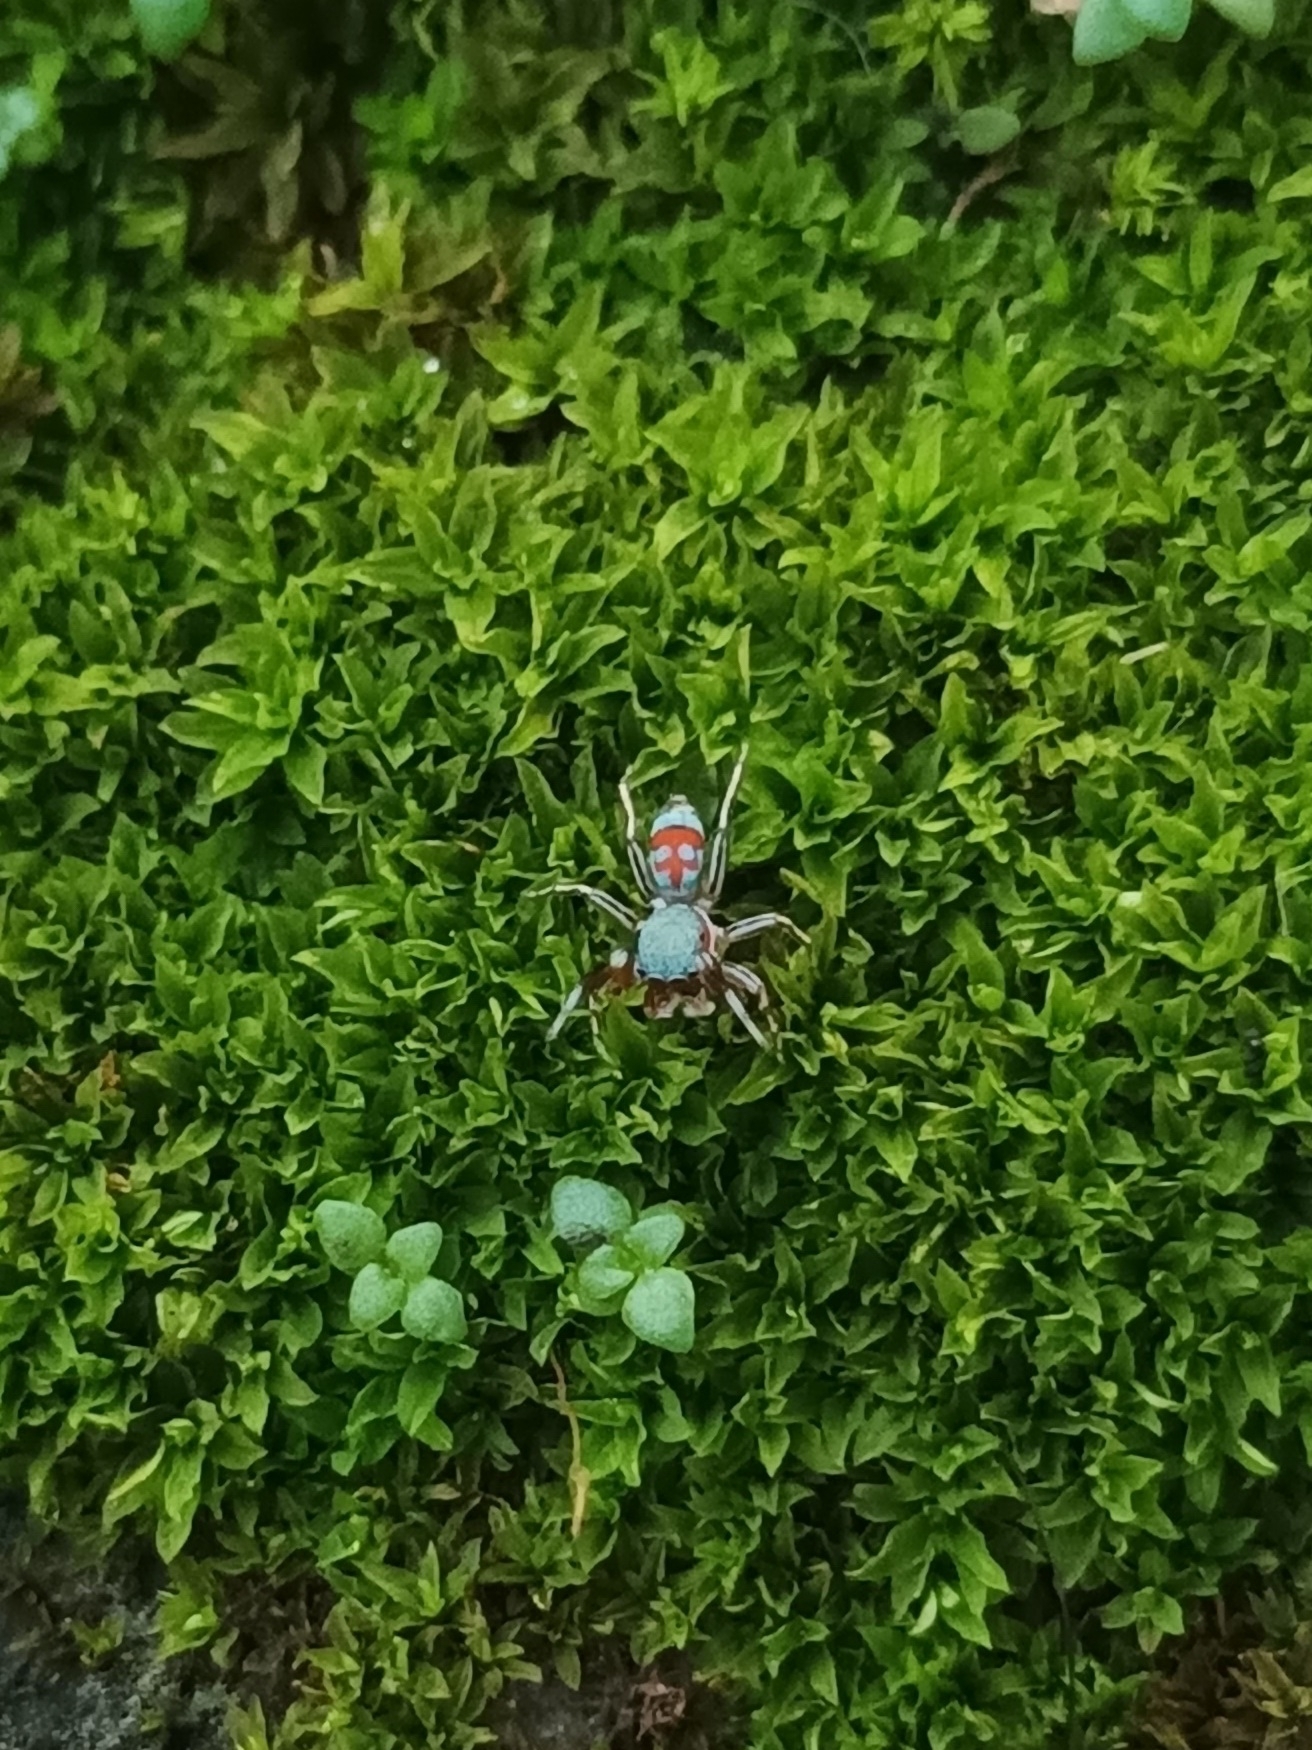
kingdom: Animalia
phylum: Arthropoda
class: Arachnida
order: Araneae
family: Salticidae
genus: Siler
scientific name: Siler semiglaucus
